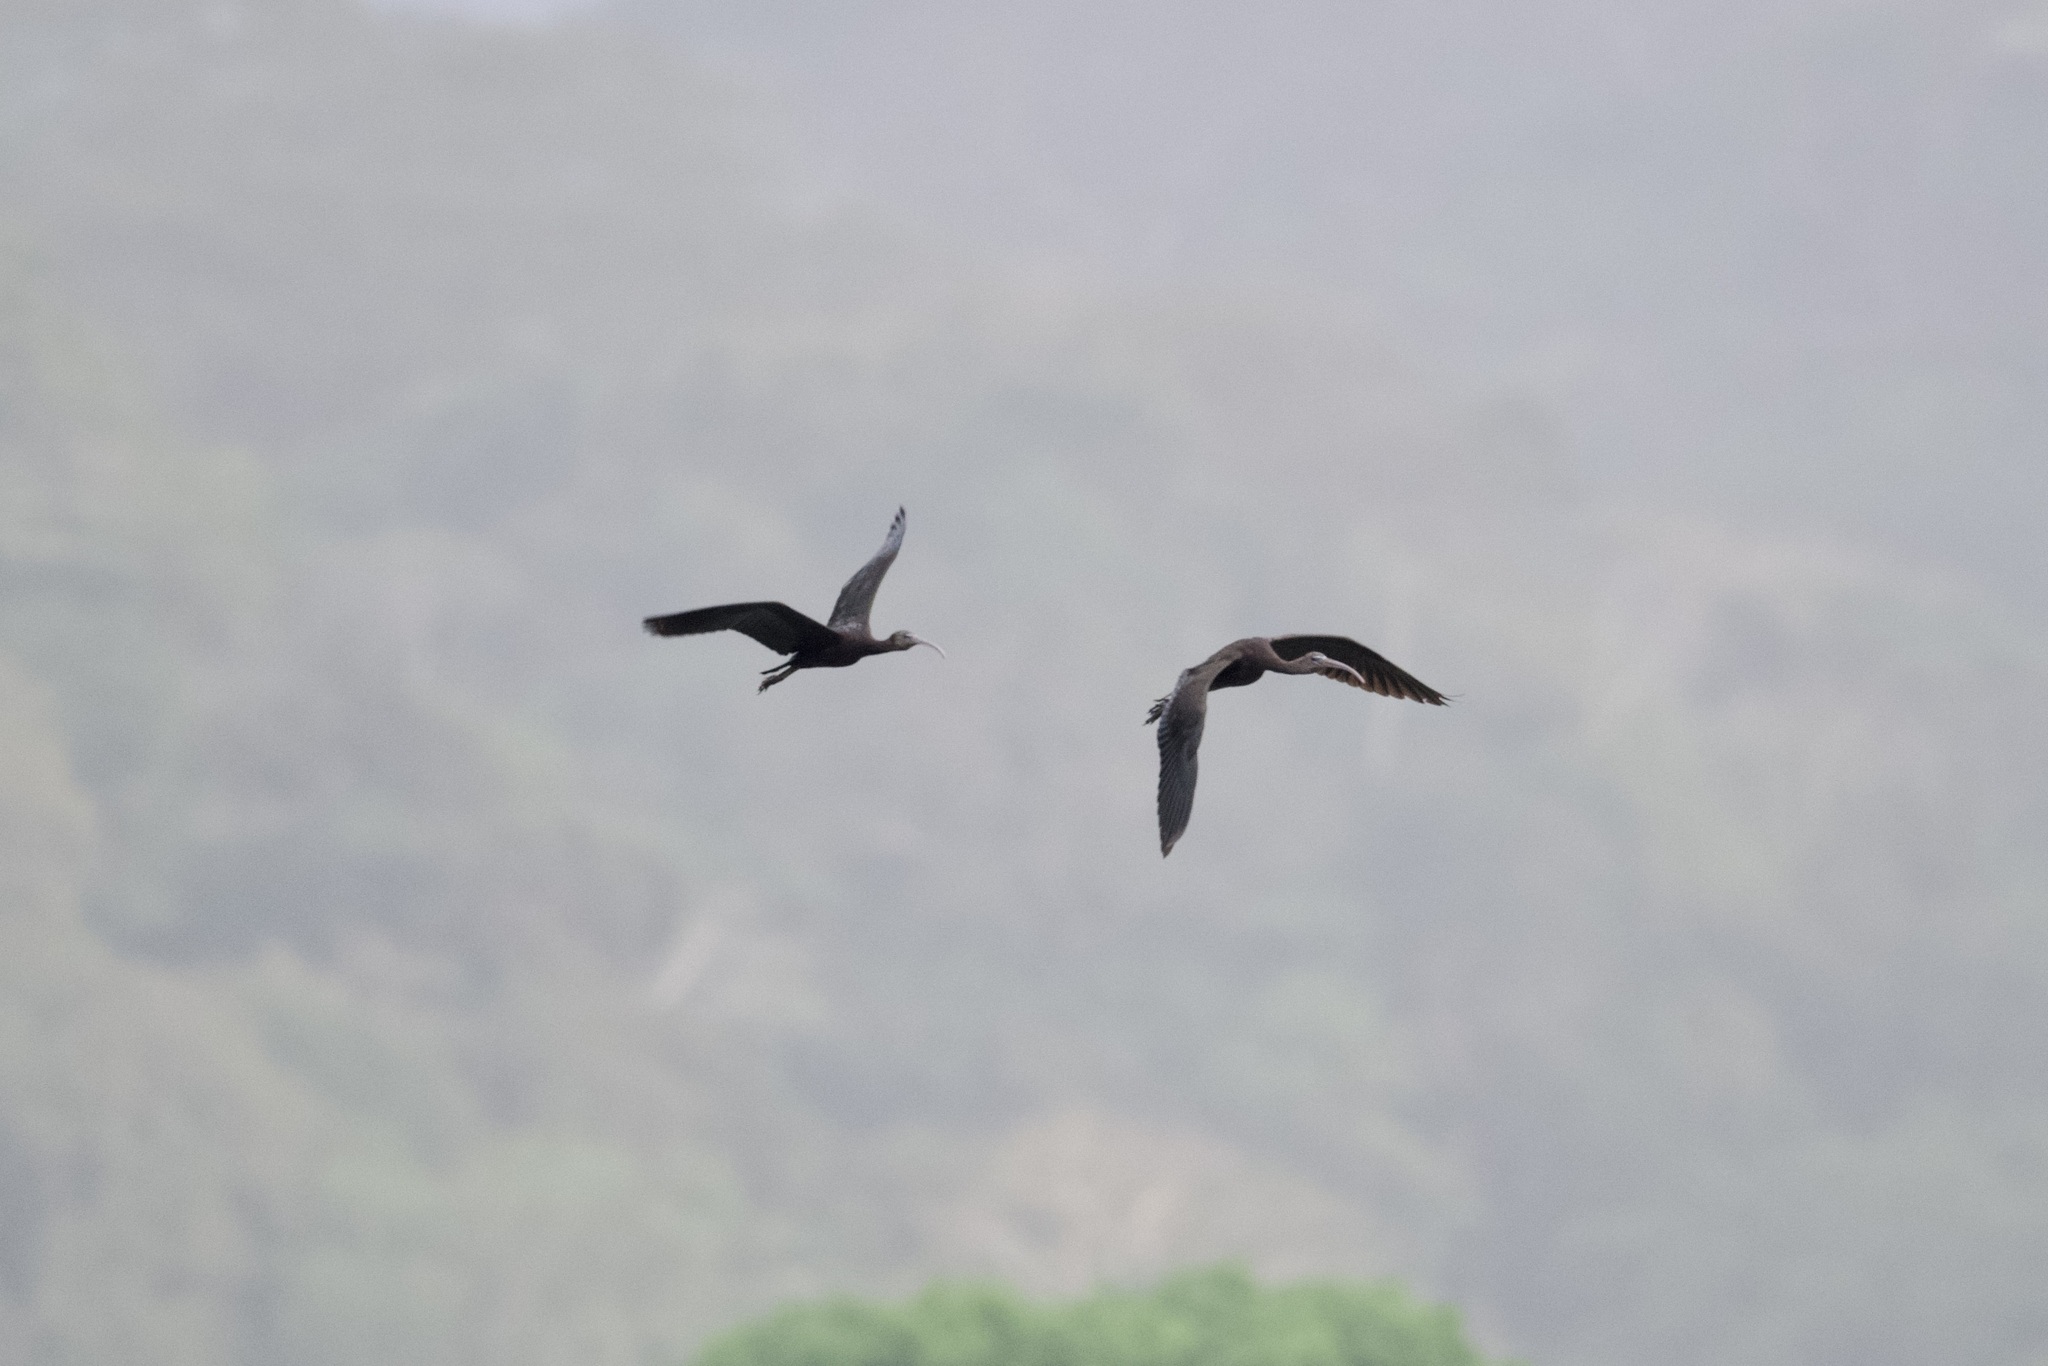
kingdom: Animalia
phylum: Chordata
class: Aves
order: Pelecaniformes
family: Threskiornithidae
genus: Plegadis
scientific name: Plegadis falcinellus
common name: Glossy ibis
